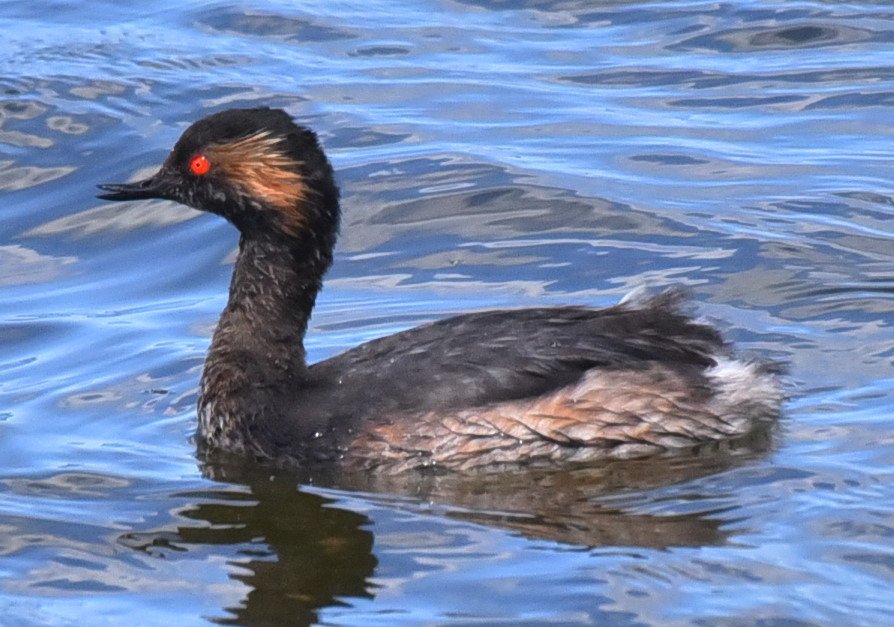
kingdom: Animalia
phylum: Chordata
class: Aves
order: Podicipediformes
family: Podicipedidae
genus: Podiceps
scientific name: Podiceps nigricollis
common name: Black-necked grebe
